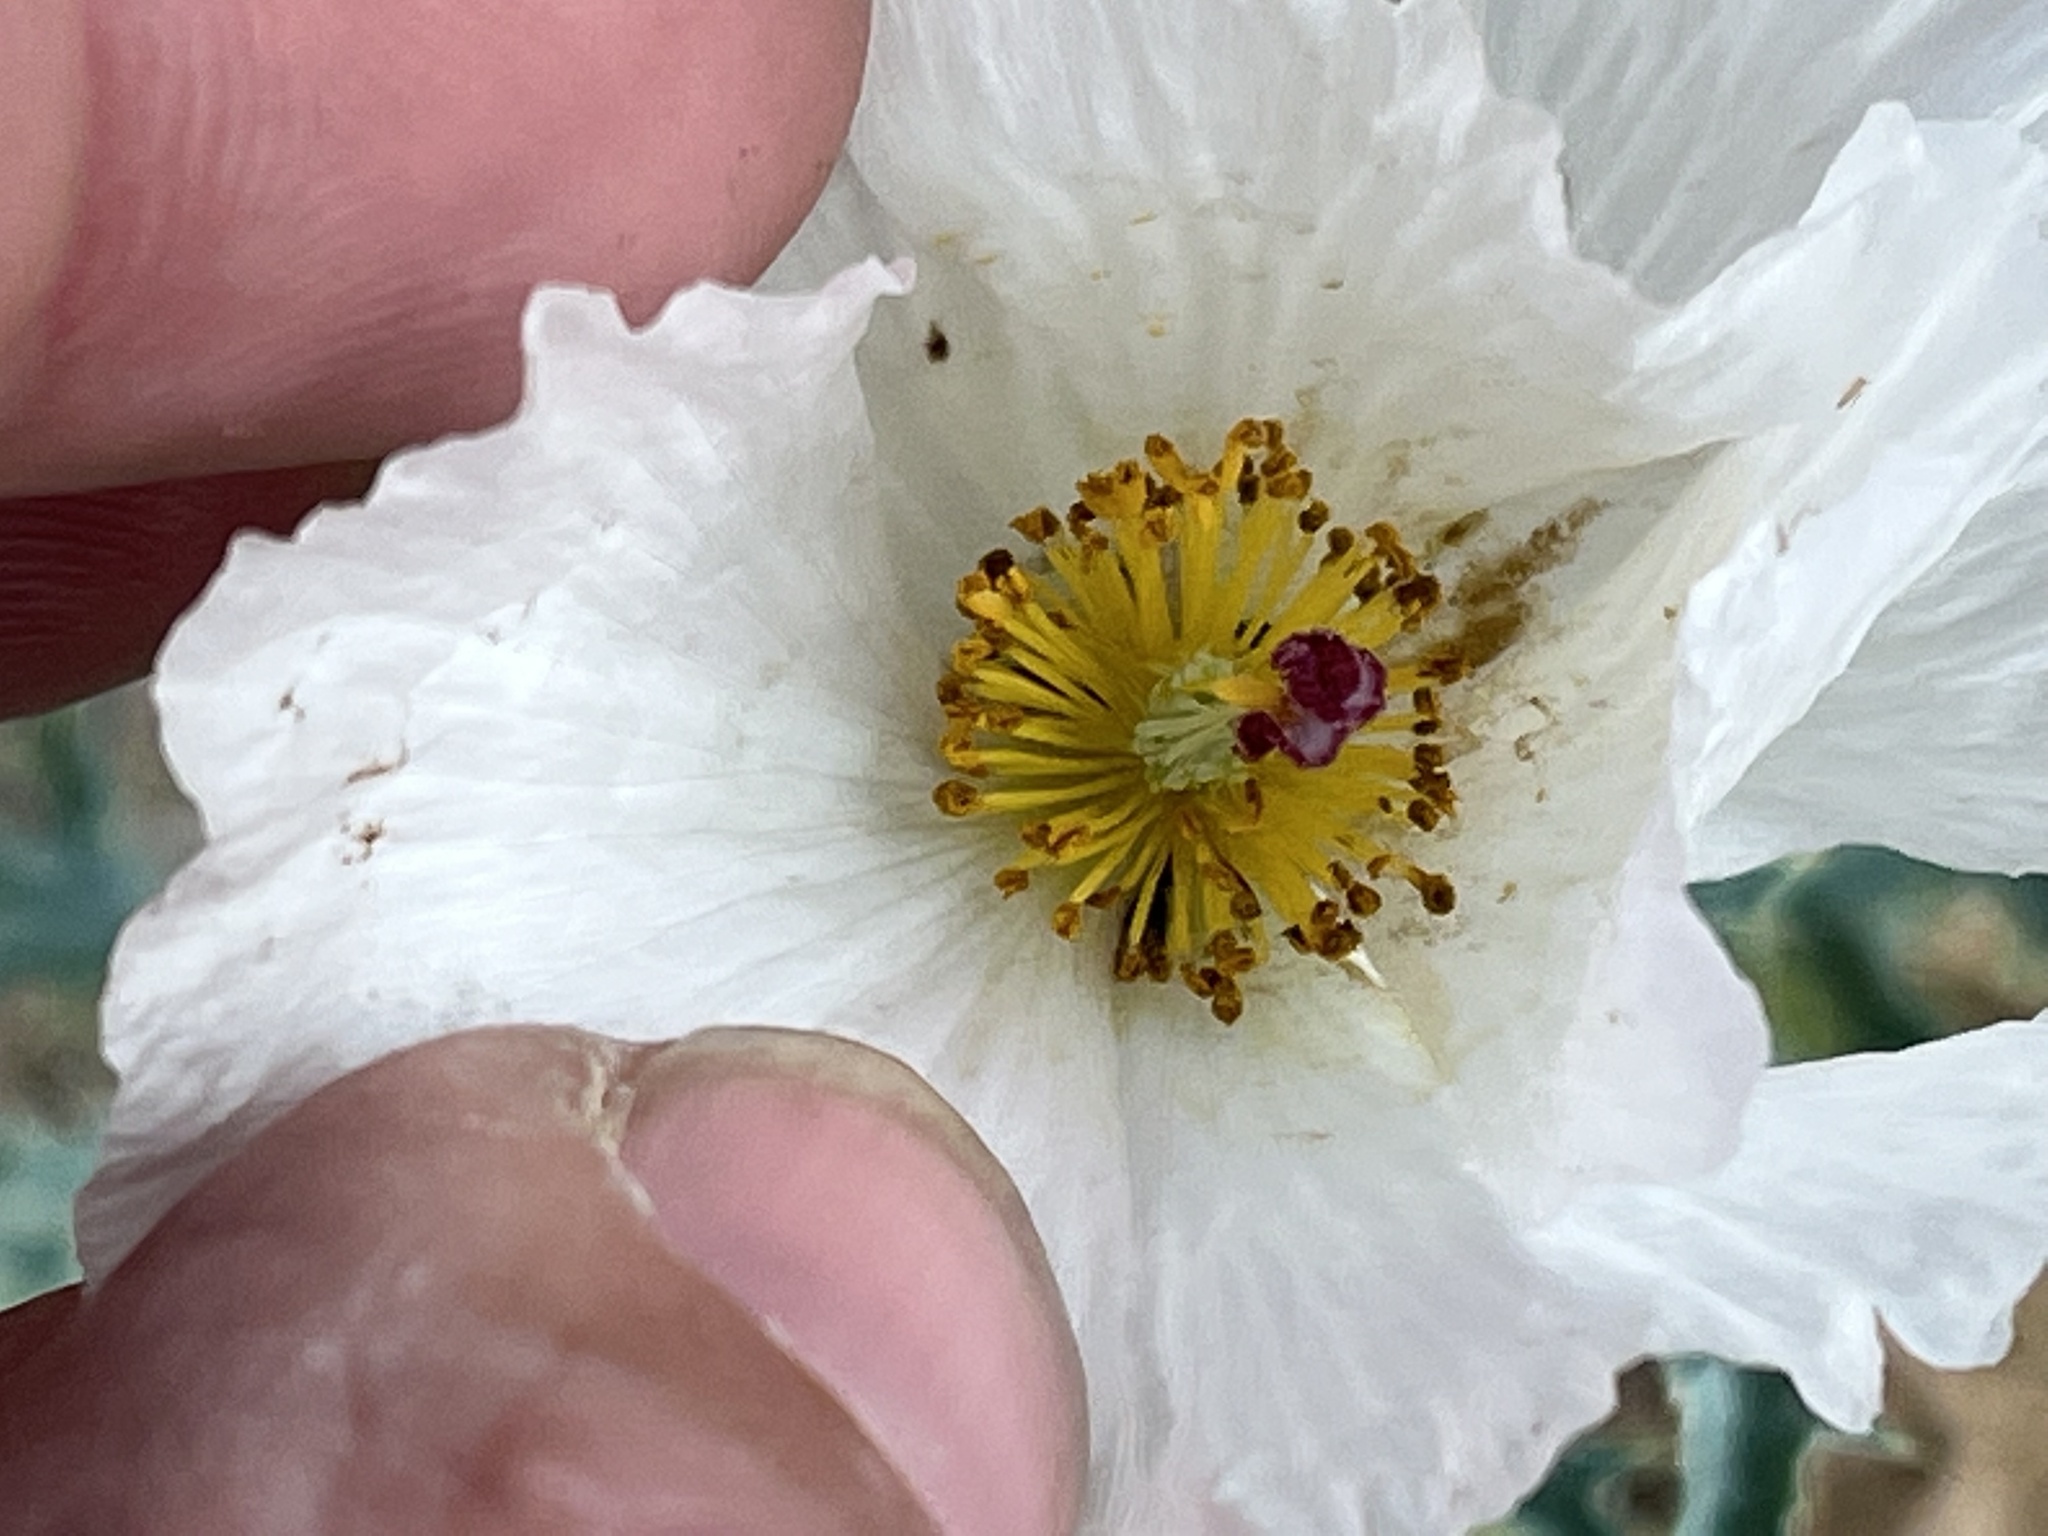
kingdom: Plantae
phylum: Tracheophyta
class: Magnoliopsida
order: Ranunculales
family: Papaveraceae
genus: Argemone
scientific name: Argemone polyanthemos
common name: Plains prickly-poppy
